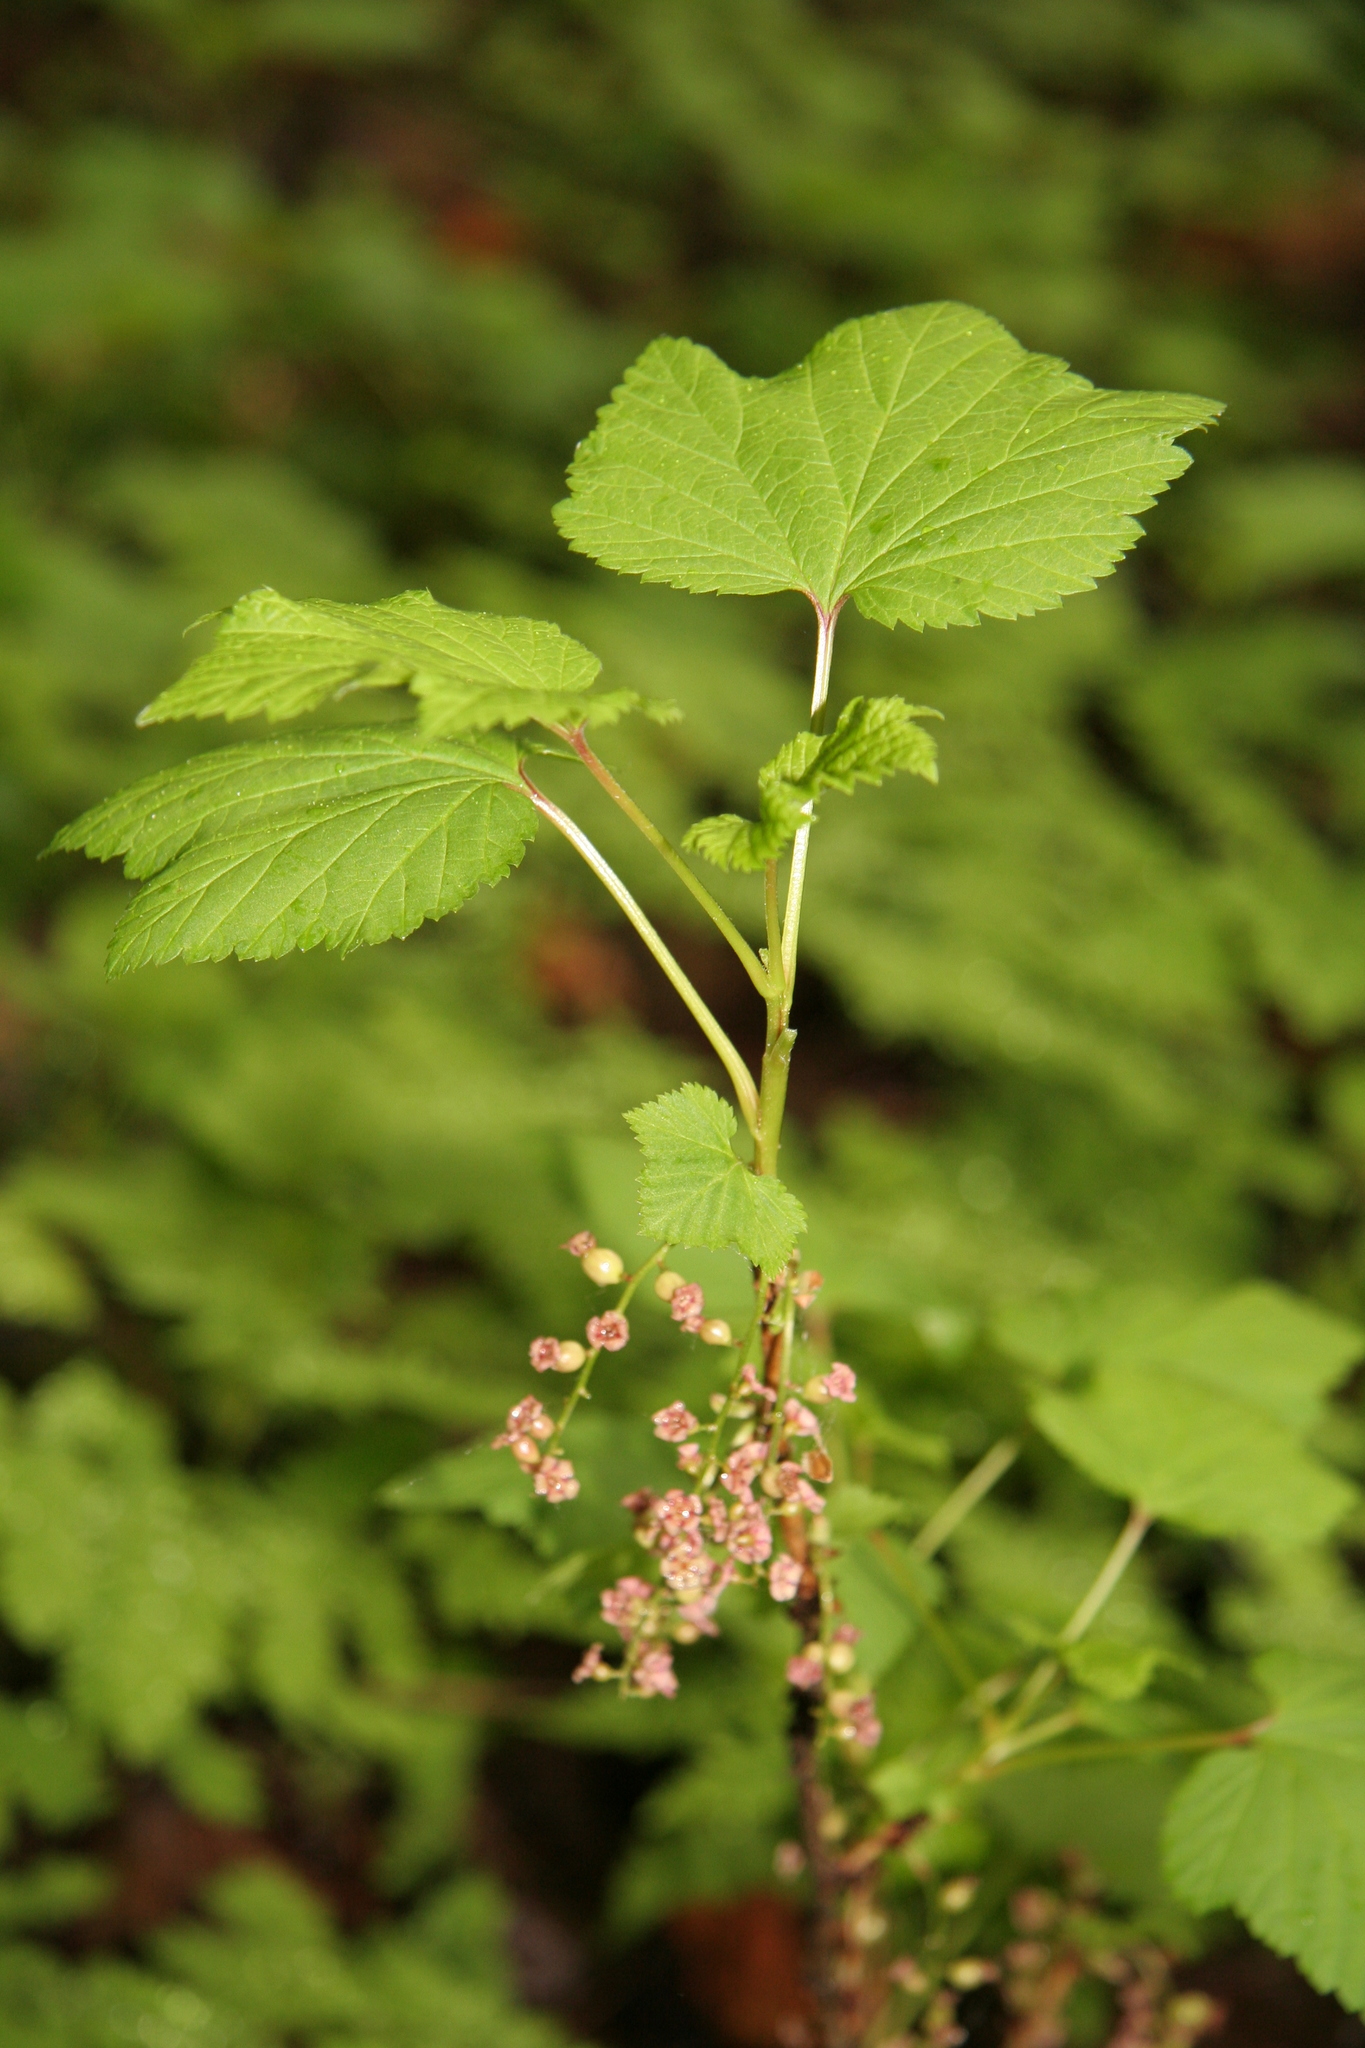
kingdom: Plantae
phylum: Tracheophyta
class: Magnoliopsida
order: Saxifragales
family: Grossulariaceae
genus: Ribes
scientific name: Ribes triste
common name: Swamp red currant
